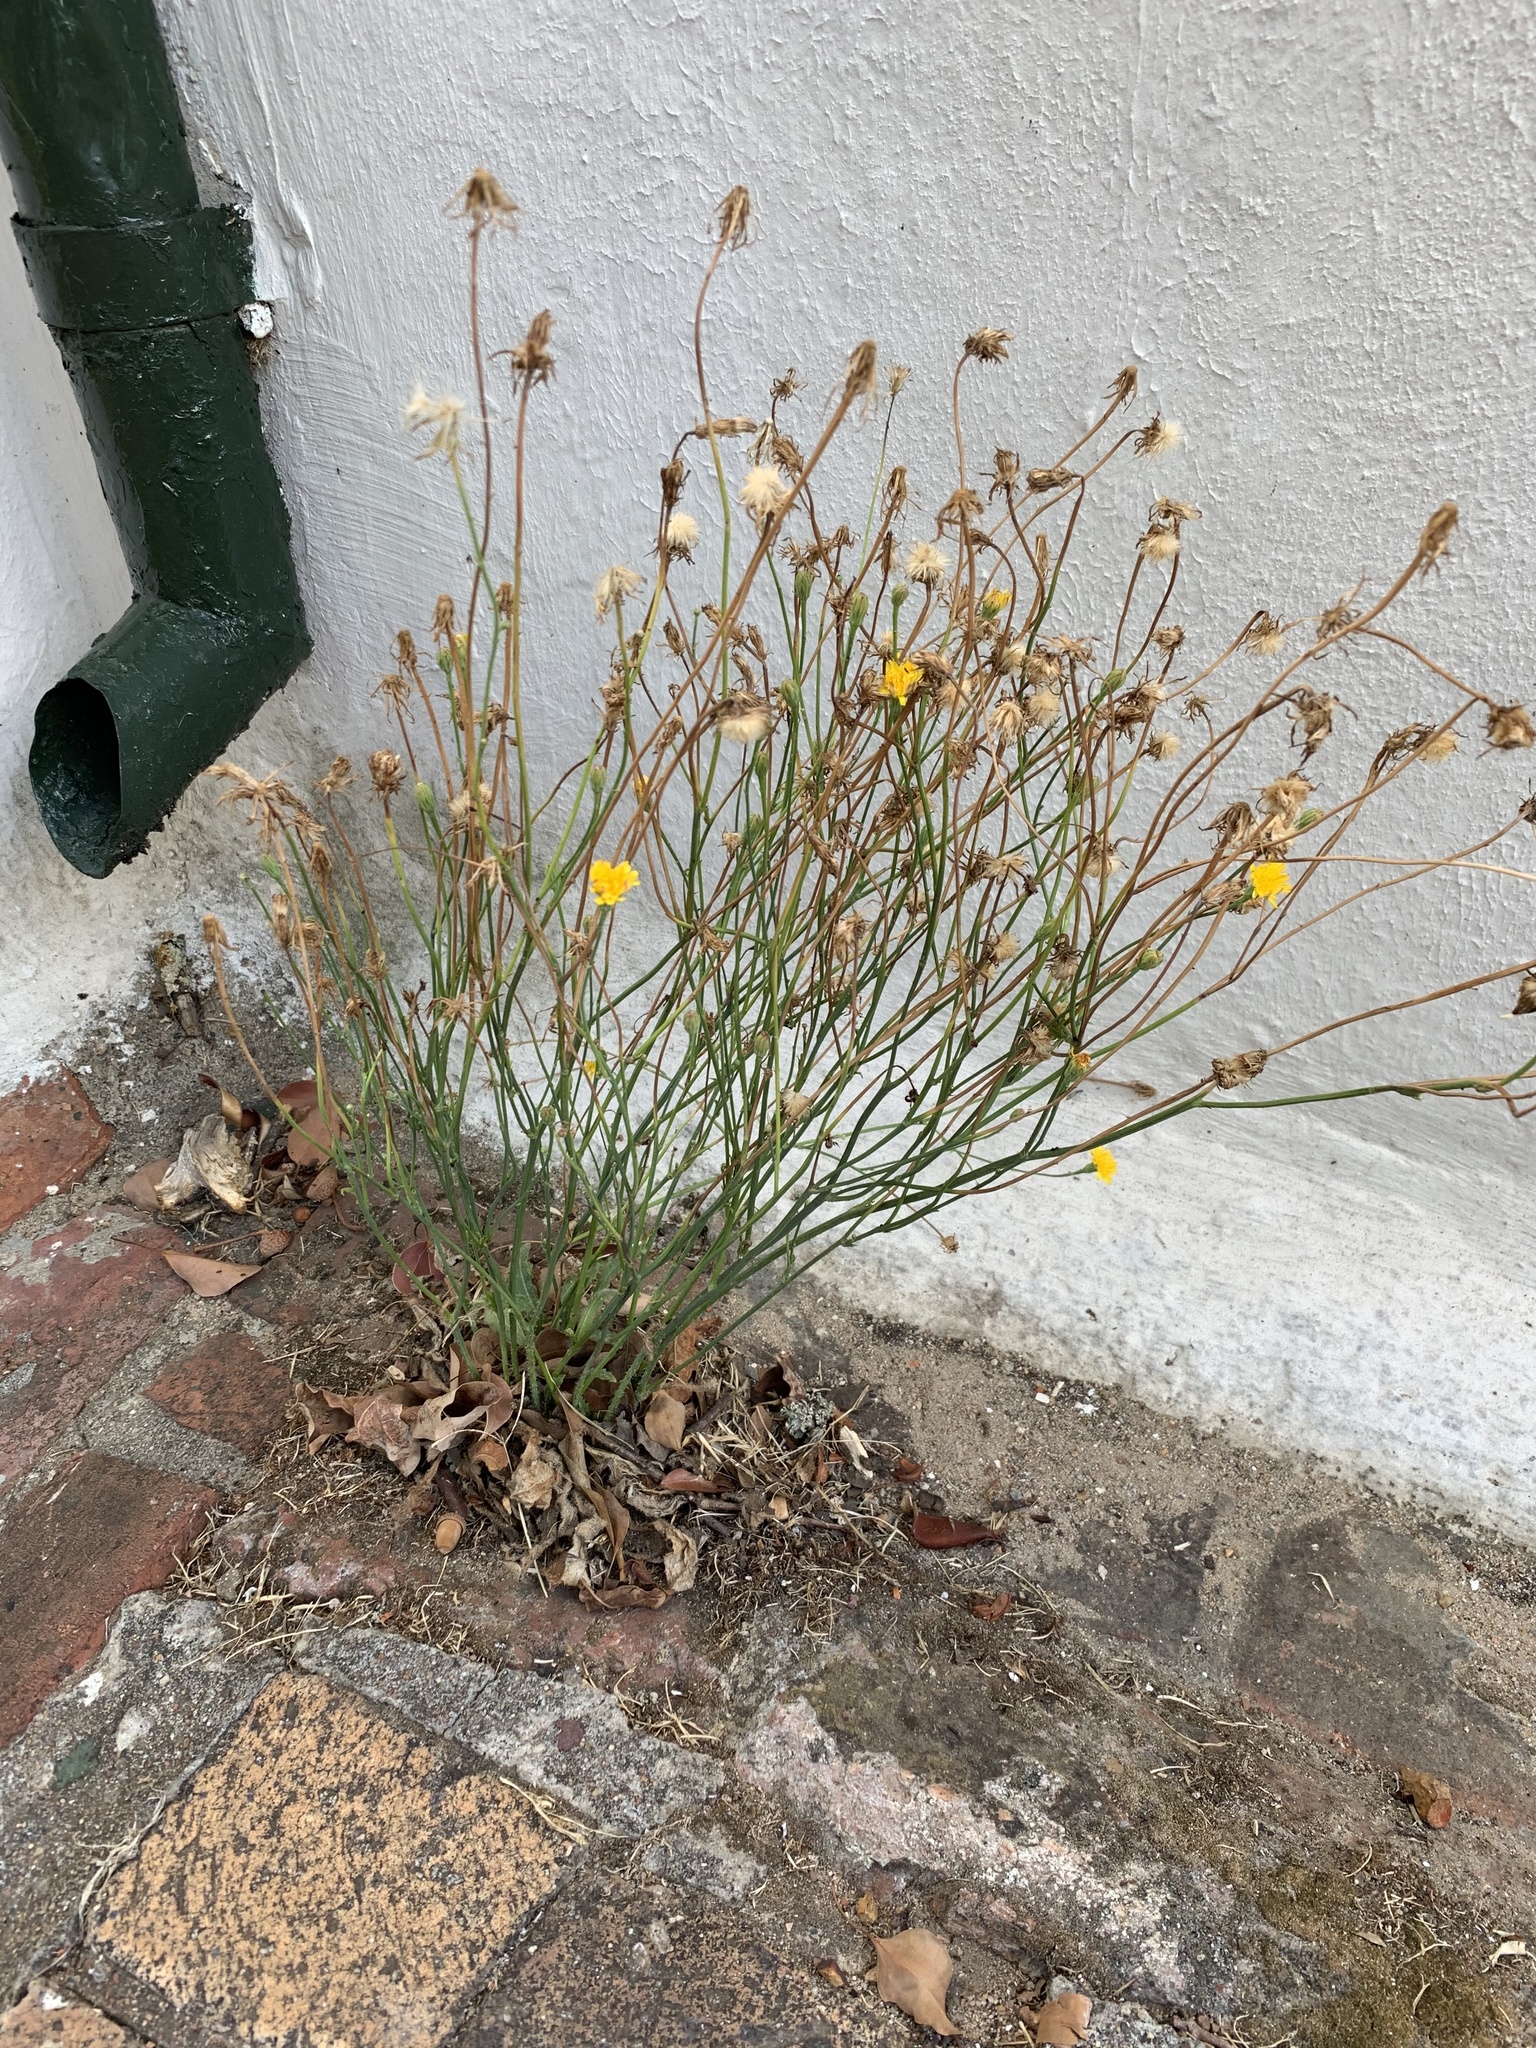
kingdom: Plantae
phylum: Tracheophyta
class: Magnoliopsida
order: Asterales
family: Asteraceae
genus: Hypochaeris
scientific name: Hypochaeris radicata
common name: Flatweed
